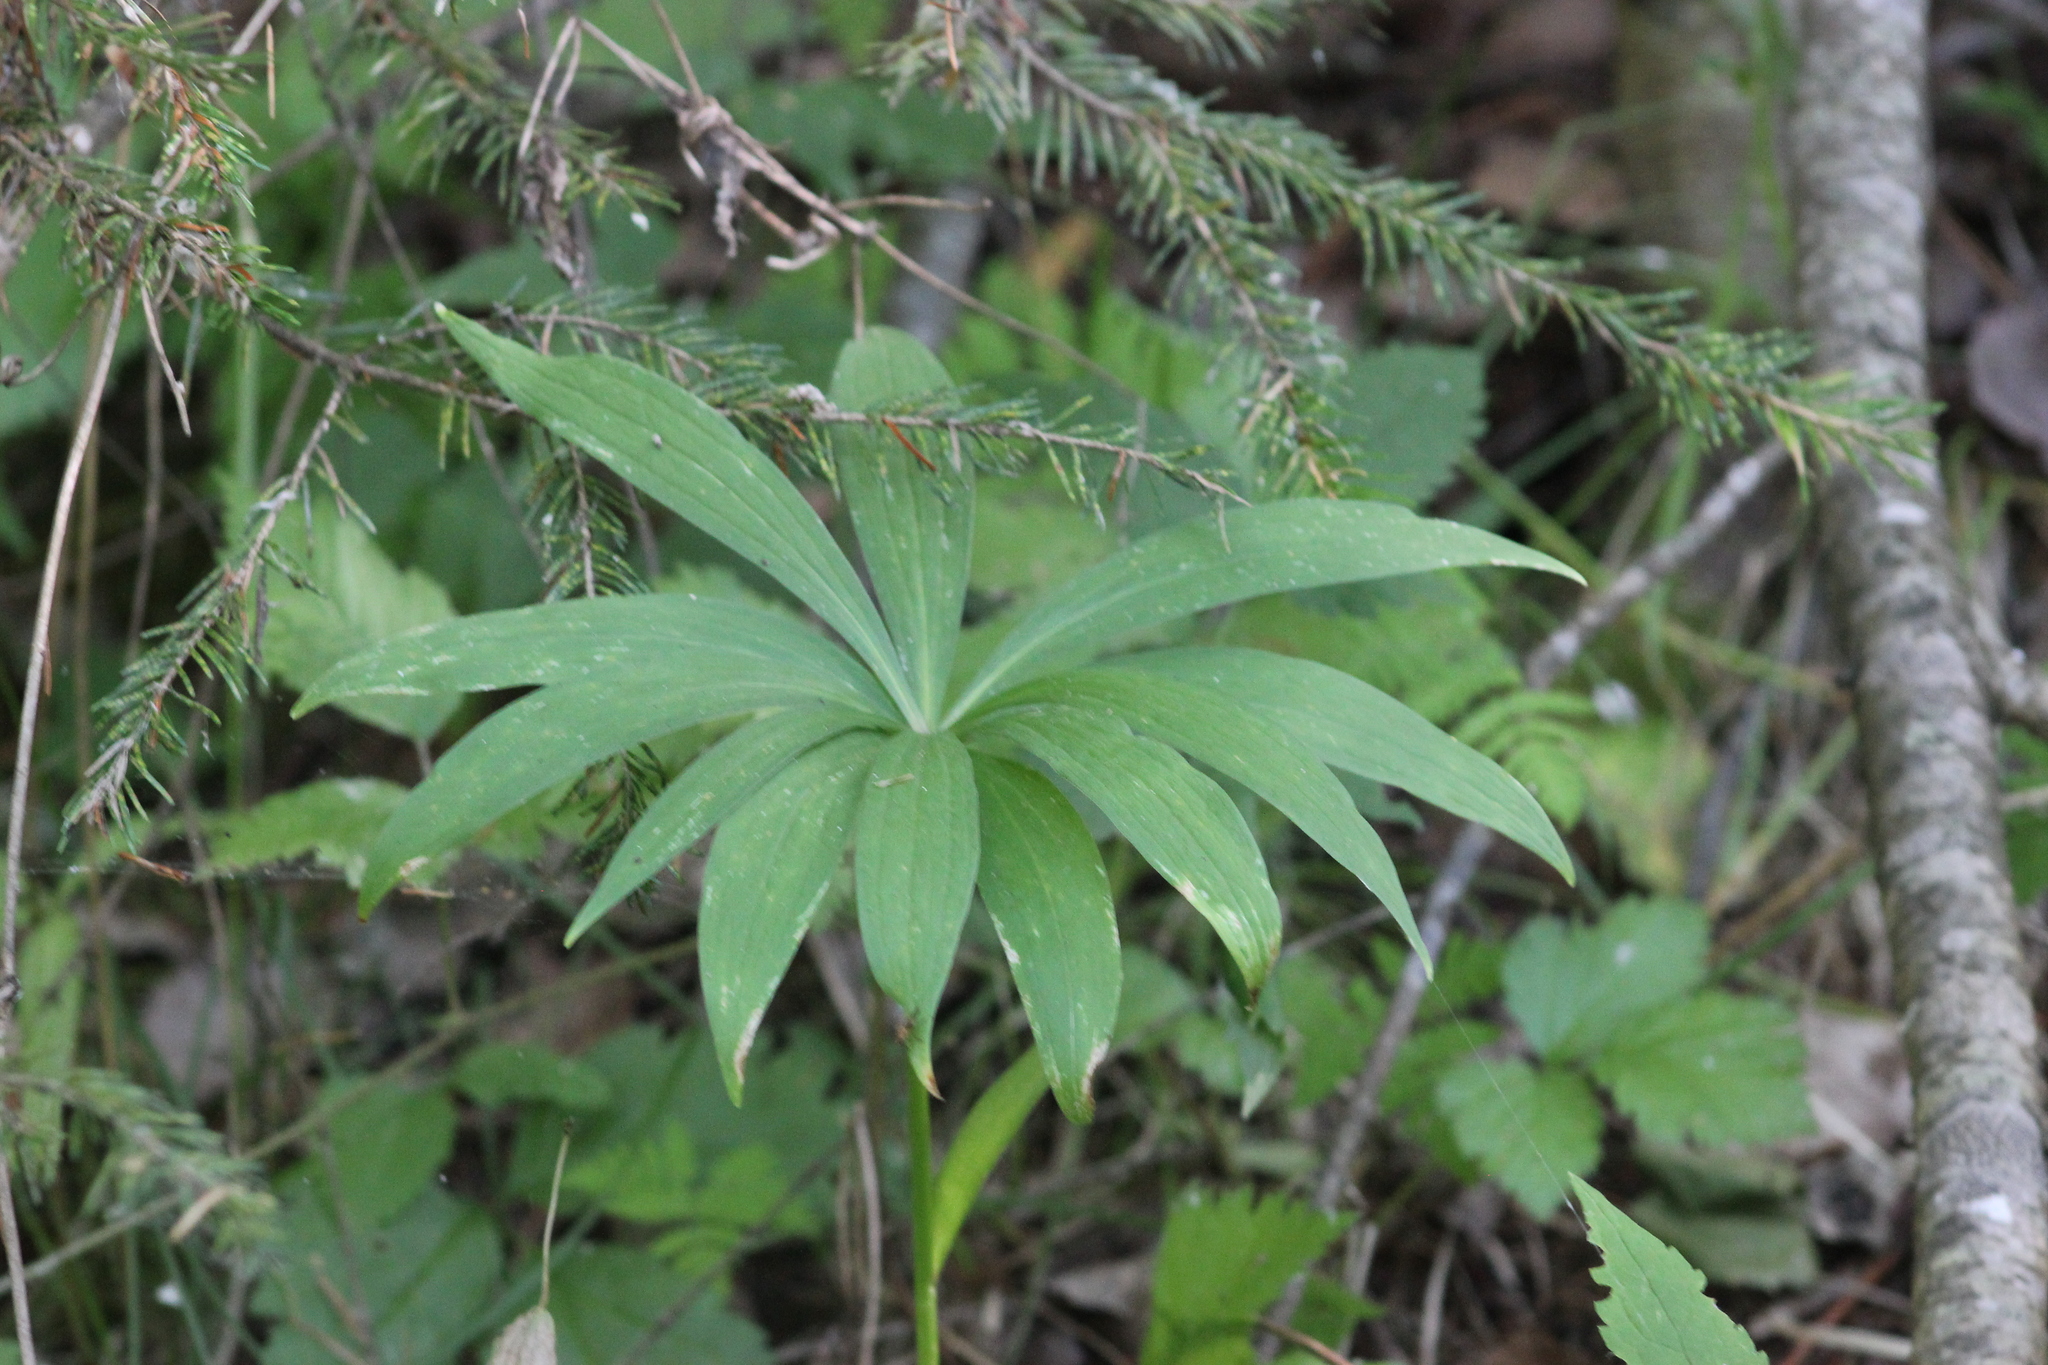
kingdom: Plantae
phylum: Tracheophyta
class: Liliopsida
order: Liliales
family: Liliaceae
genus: Lilium
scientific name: Lilium martagon
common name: Martagon lily
